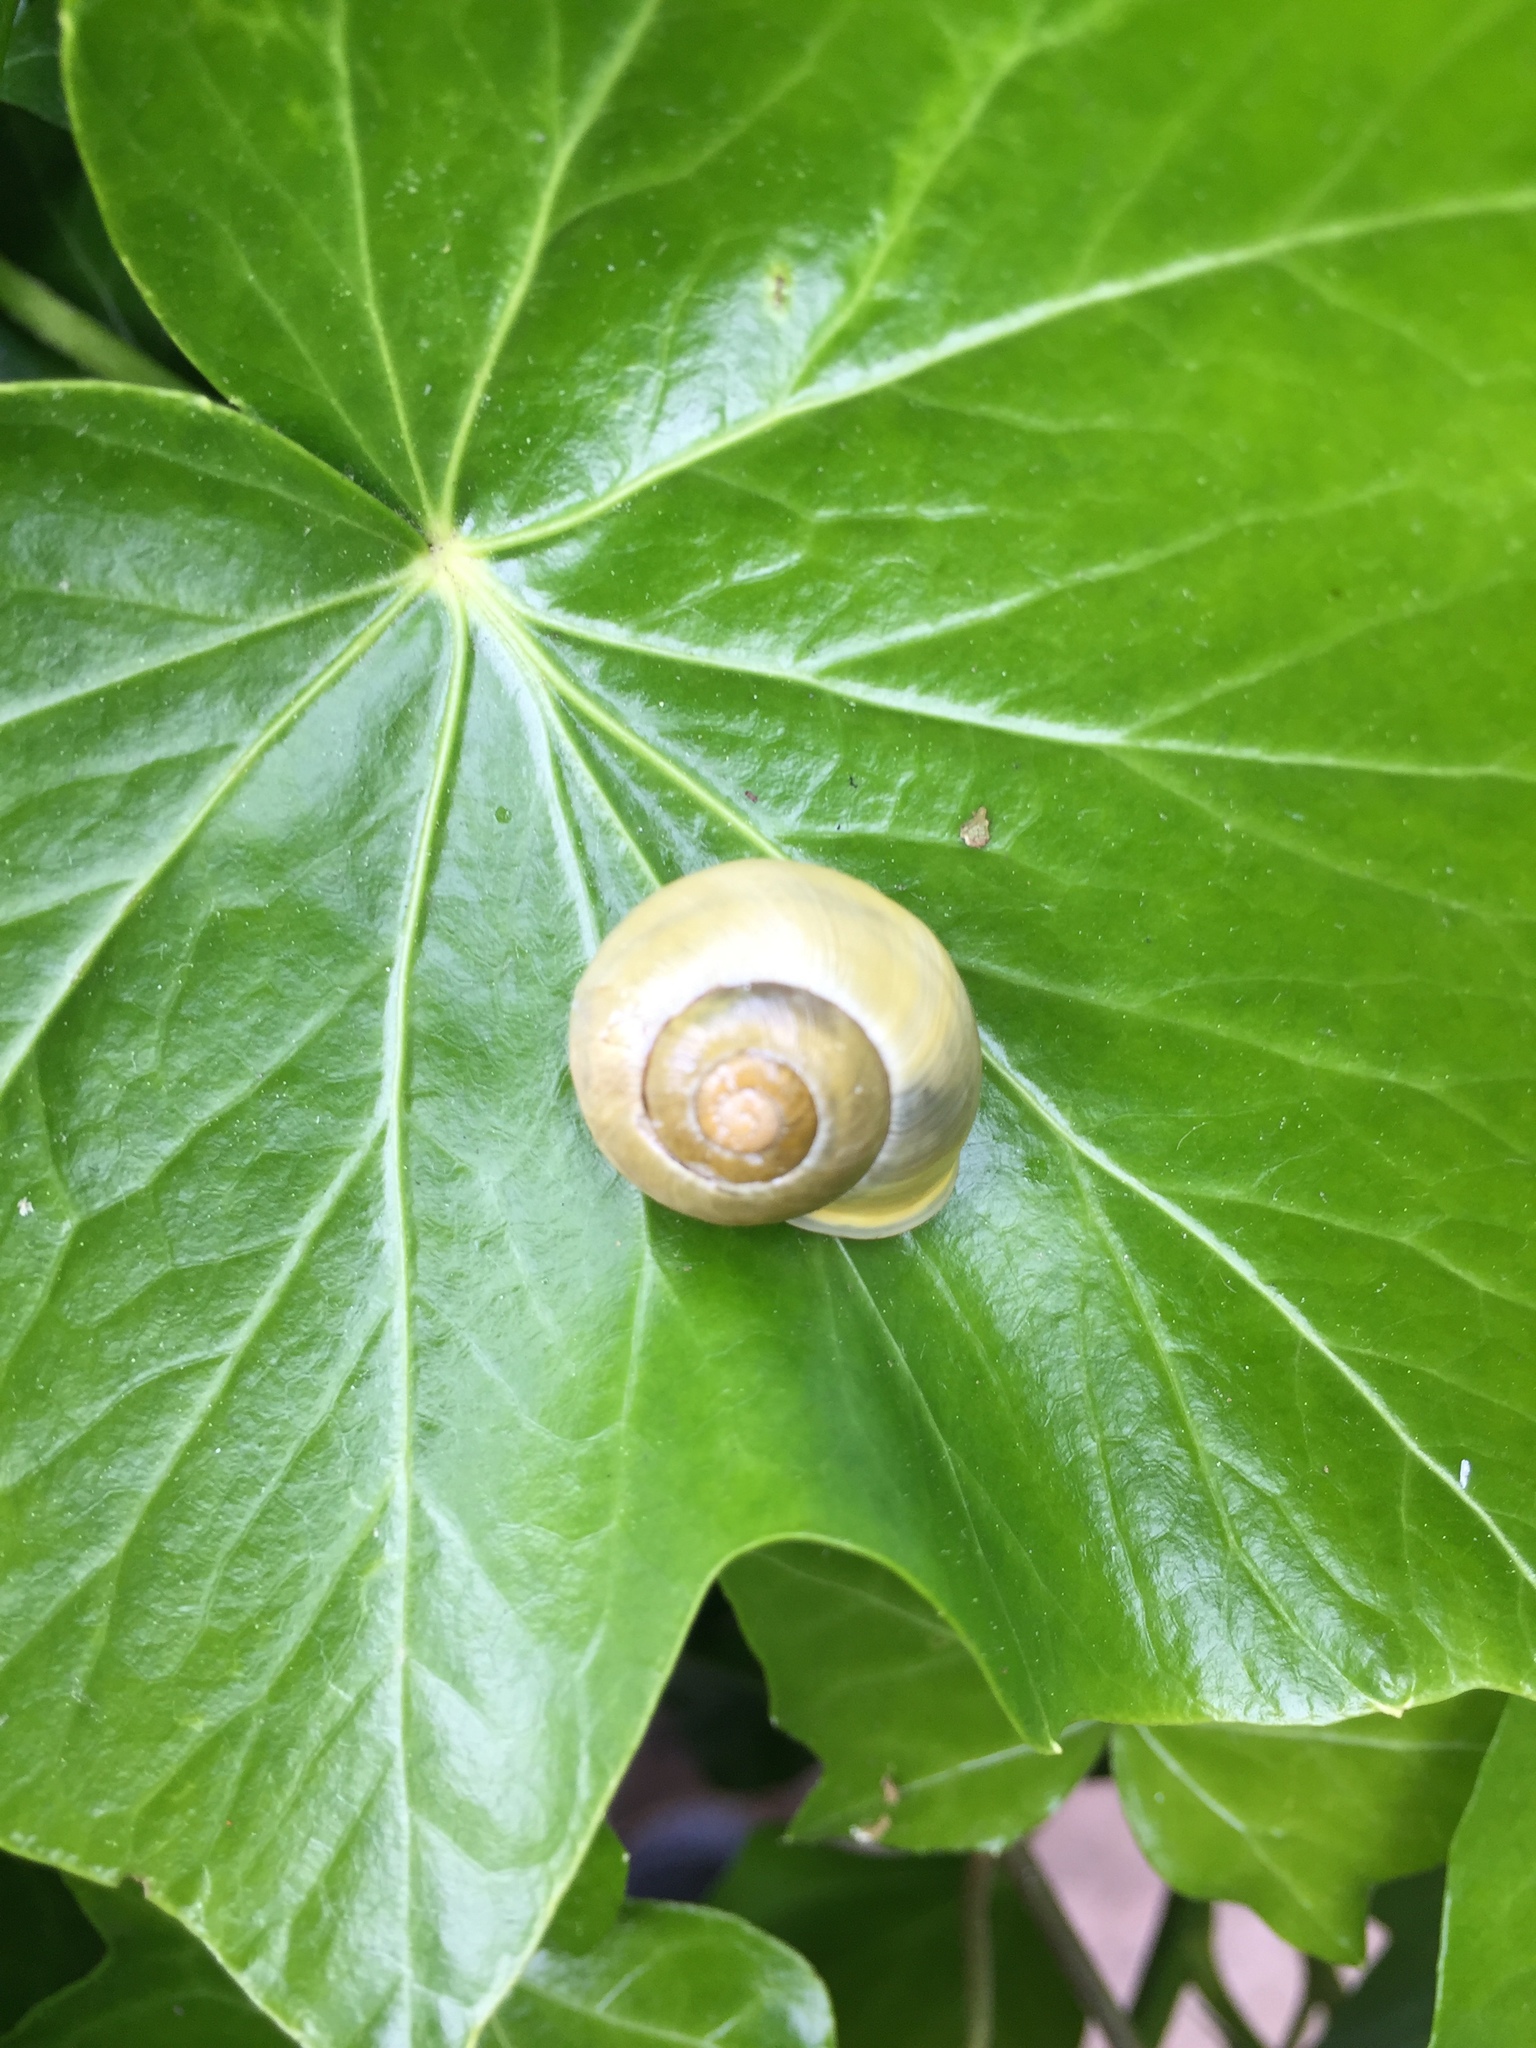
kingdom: Animalia
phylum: Mollusca
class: Gastropoda
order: Stylommatophora
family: Helicidae
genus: Cepaea
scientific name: Cepaea hortensis
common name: White-lip gardensnail
